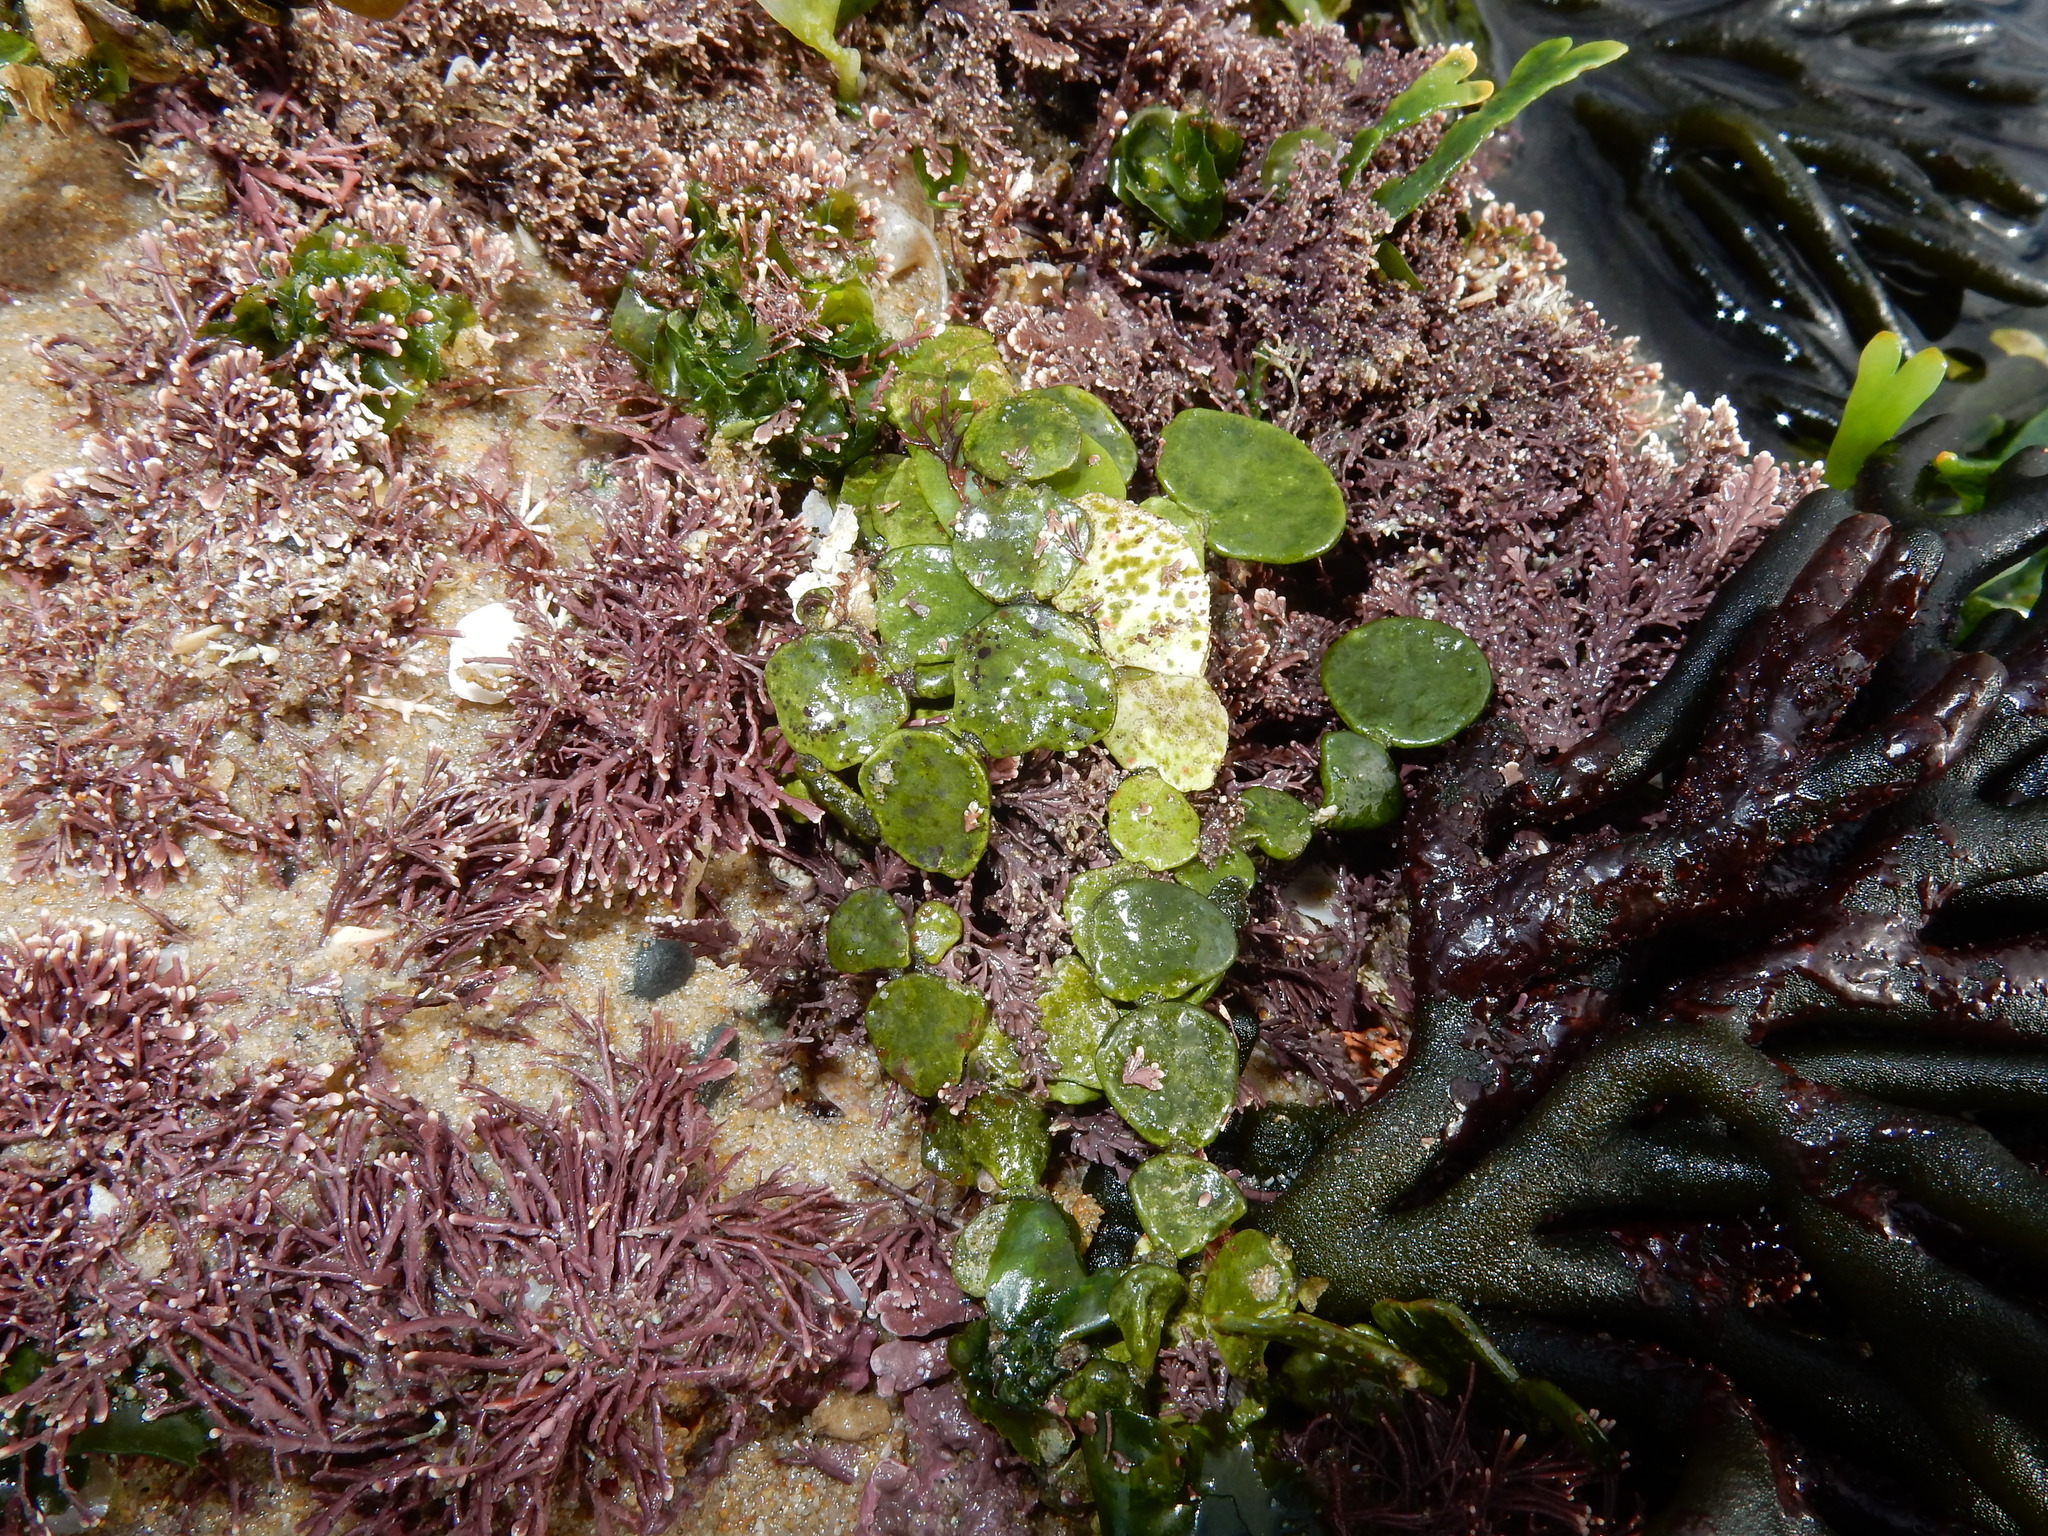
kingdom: Plantae
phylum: Chlorophyta
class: Ulvophyceae
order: Bryopsidales
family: Halimedaceae
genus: Halimeda
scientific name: Halimeda cuneata
